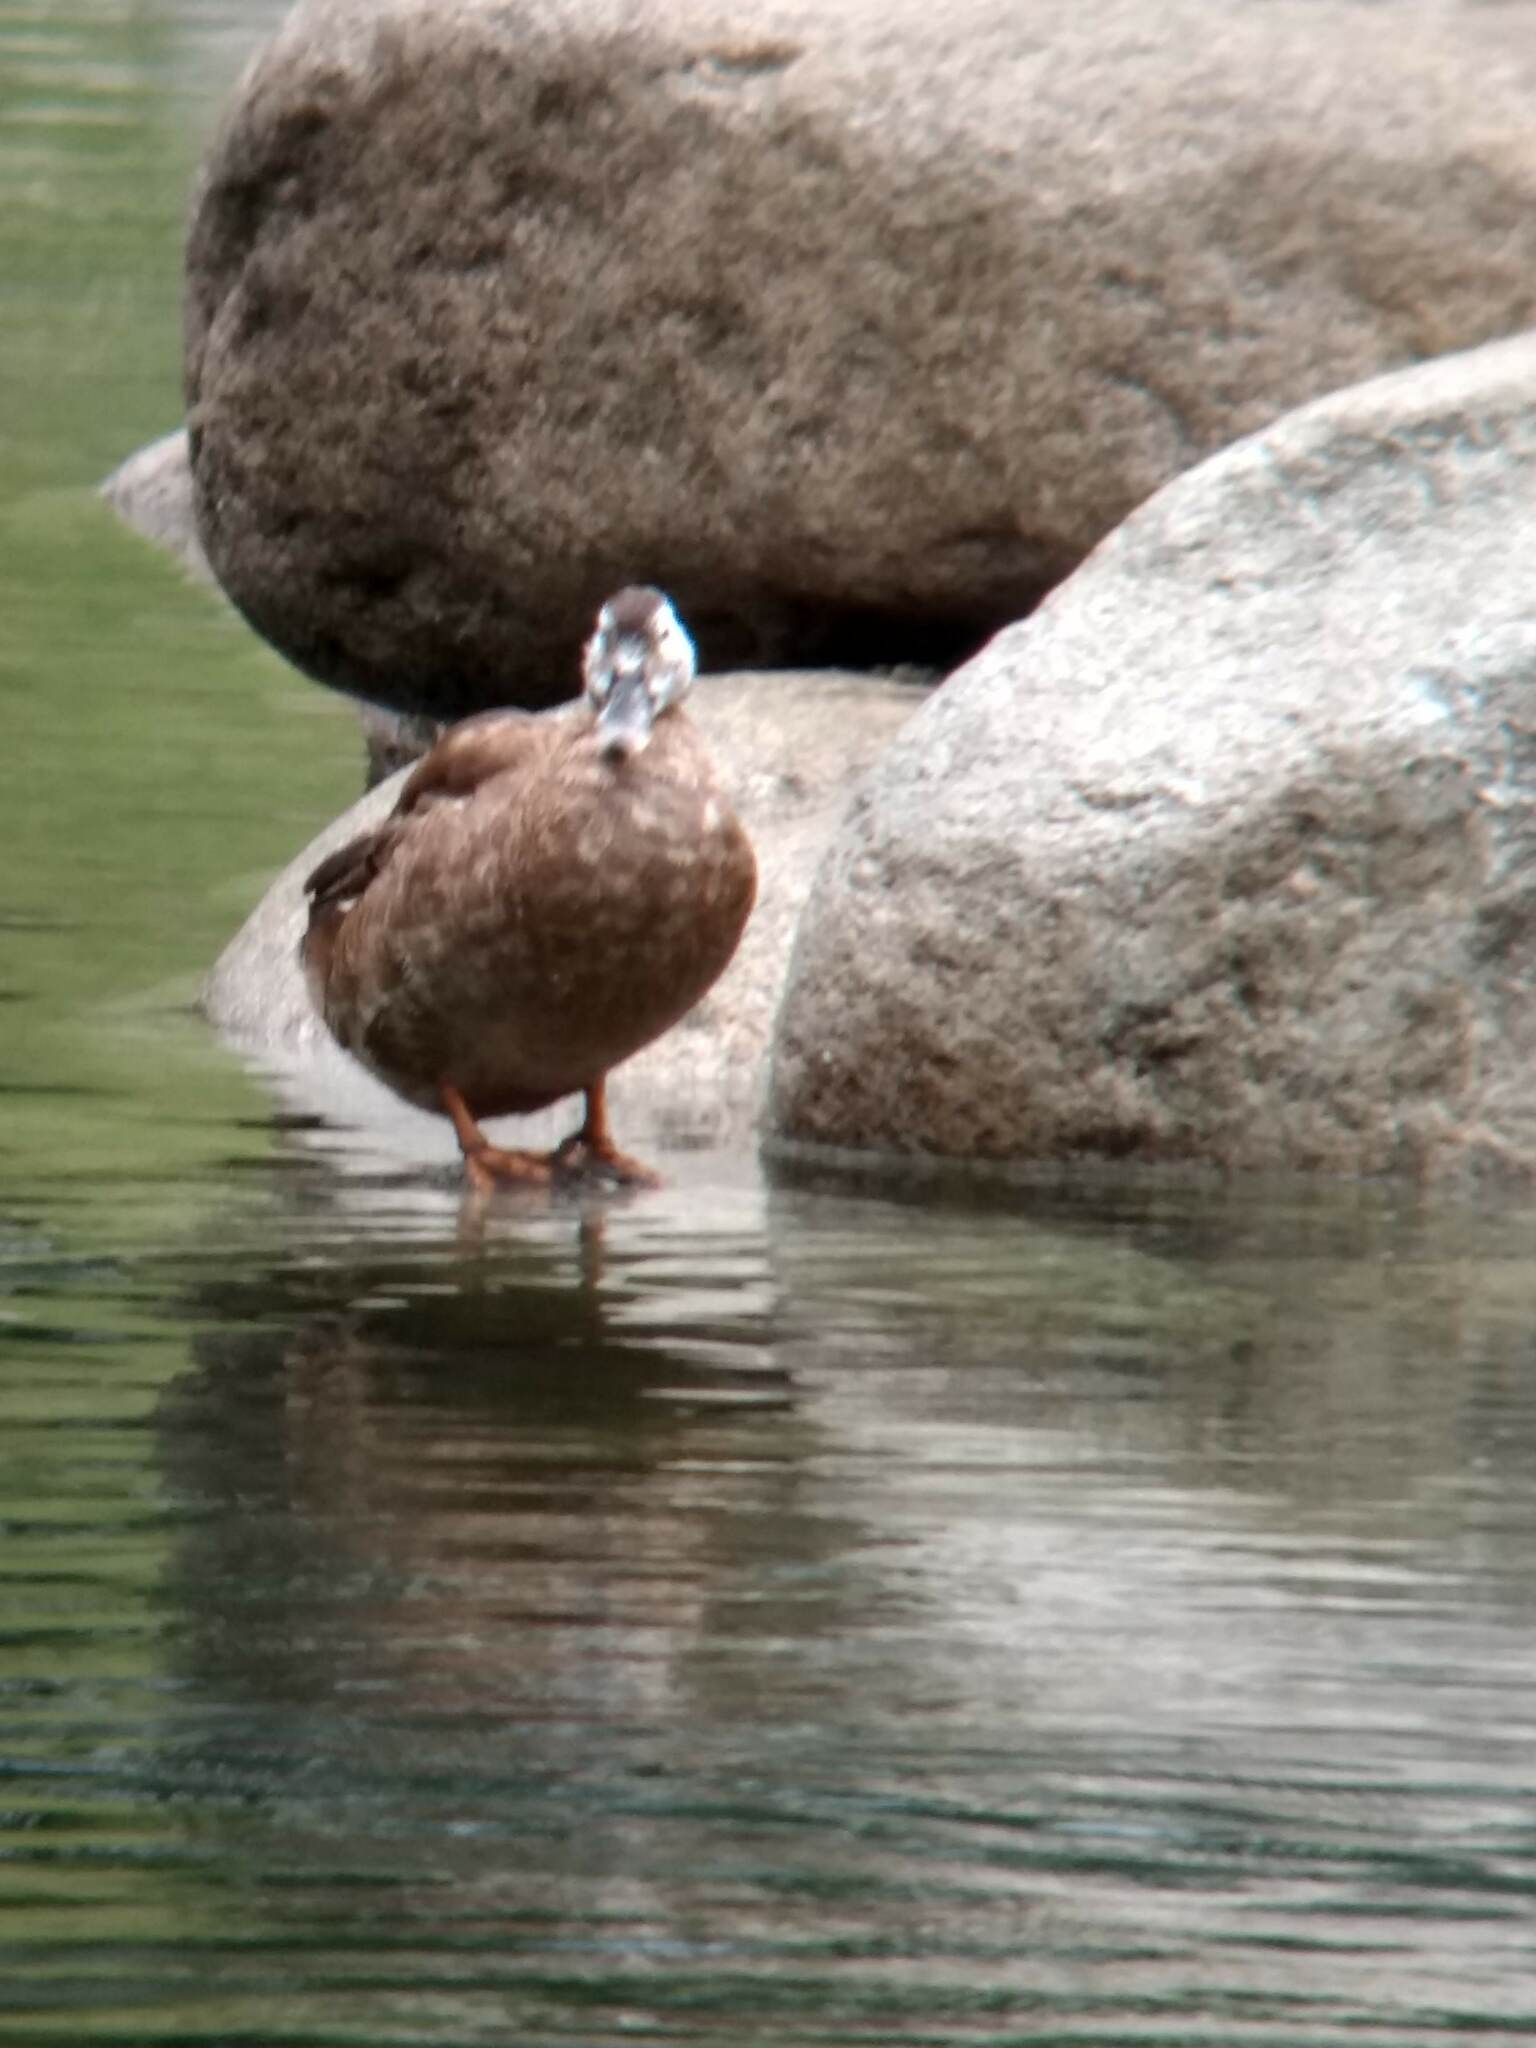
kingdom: Animalia
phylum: Chordata
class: Aves
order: Anseriformes
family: Anatidae
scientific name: Anatidae
